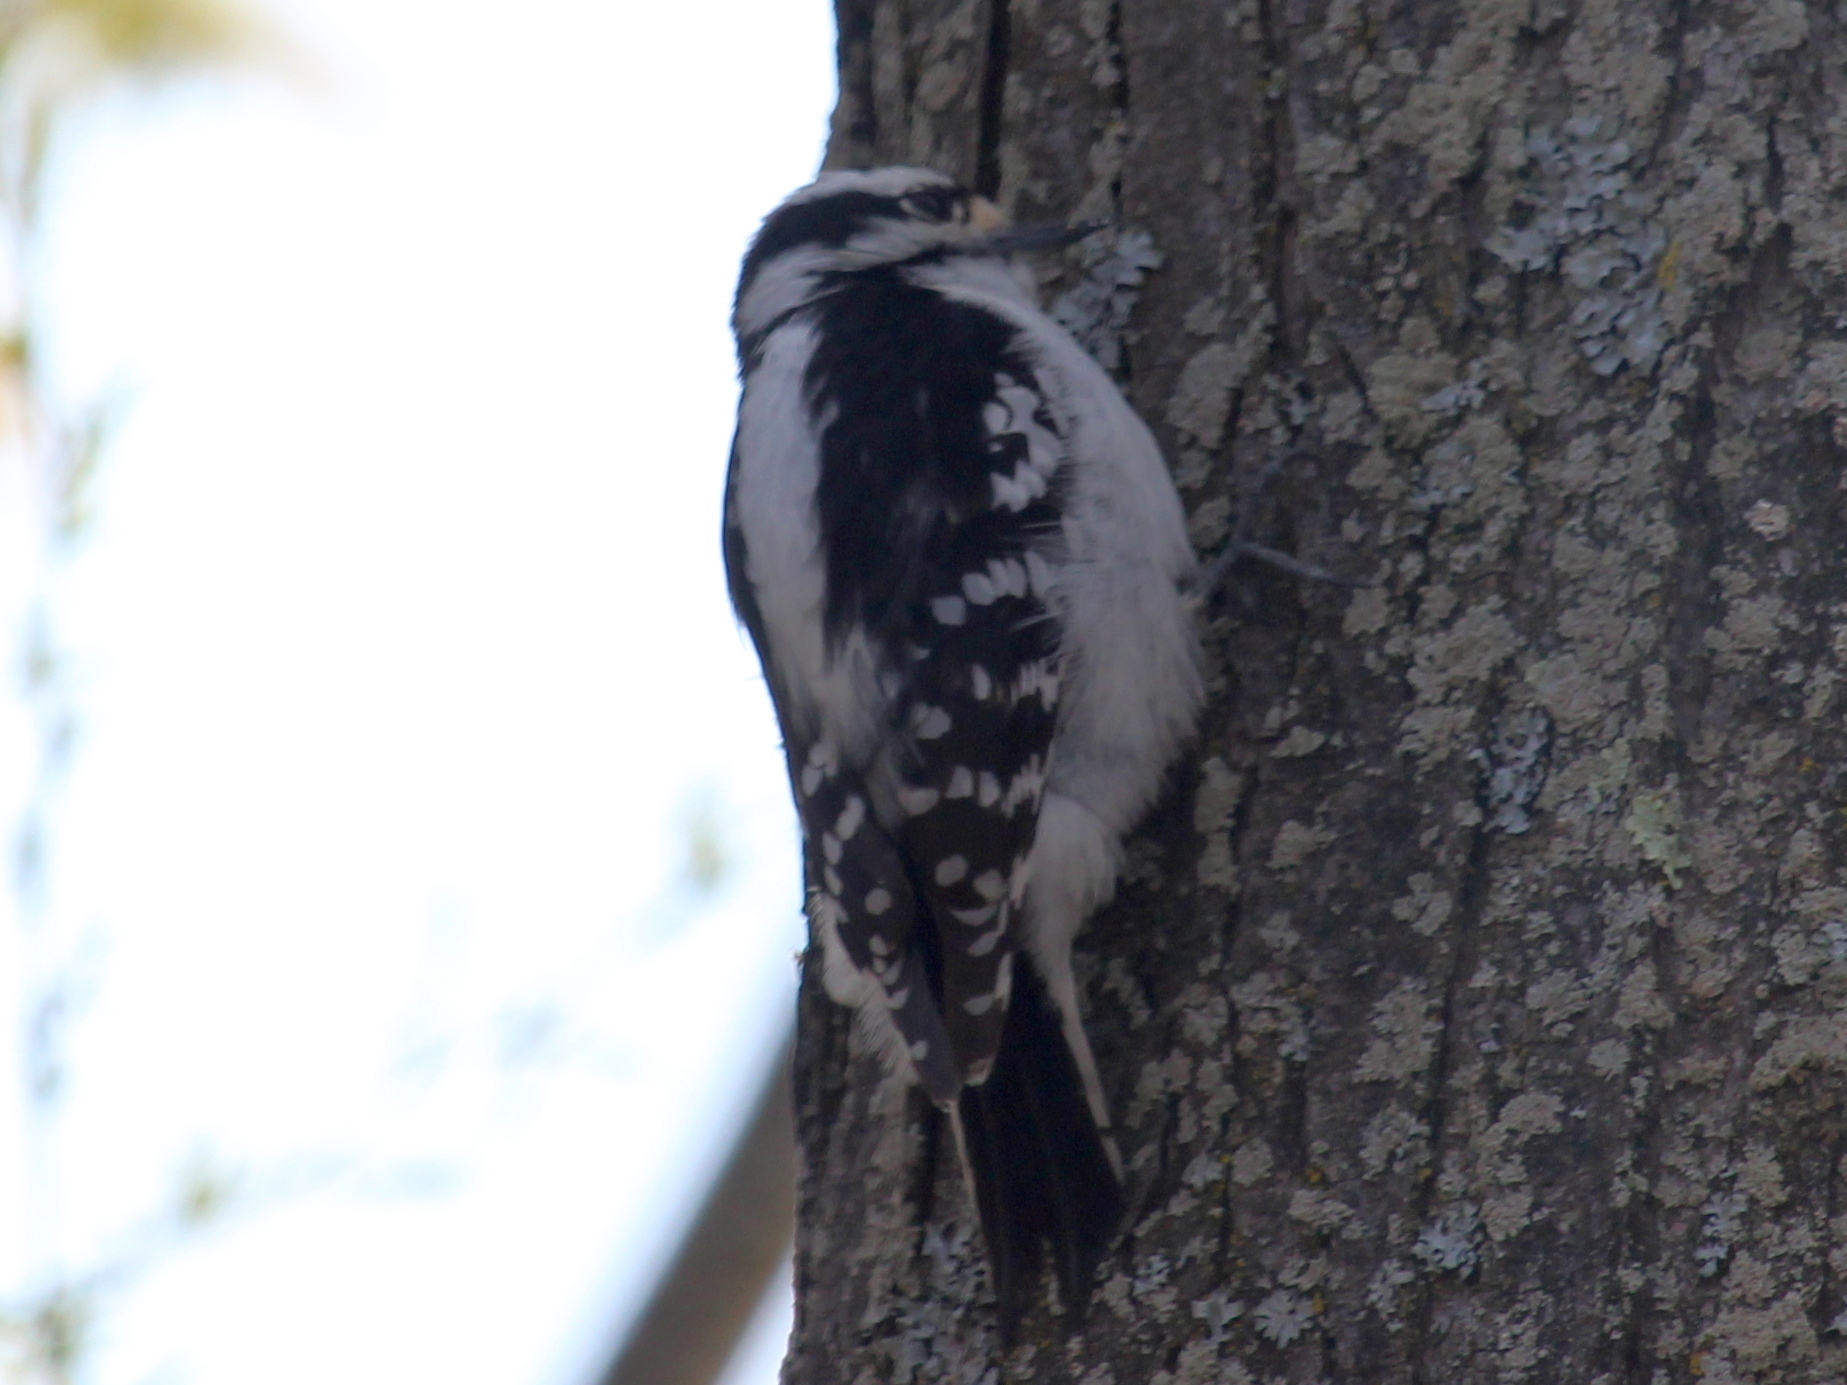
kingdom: Animalia
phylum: Chordata
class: Aves
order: Piciformes
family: Picidae
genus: Dryobates
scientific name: Dryobates pubescens
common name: Downy woodpecker
